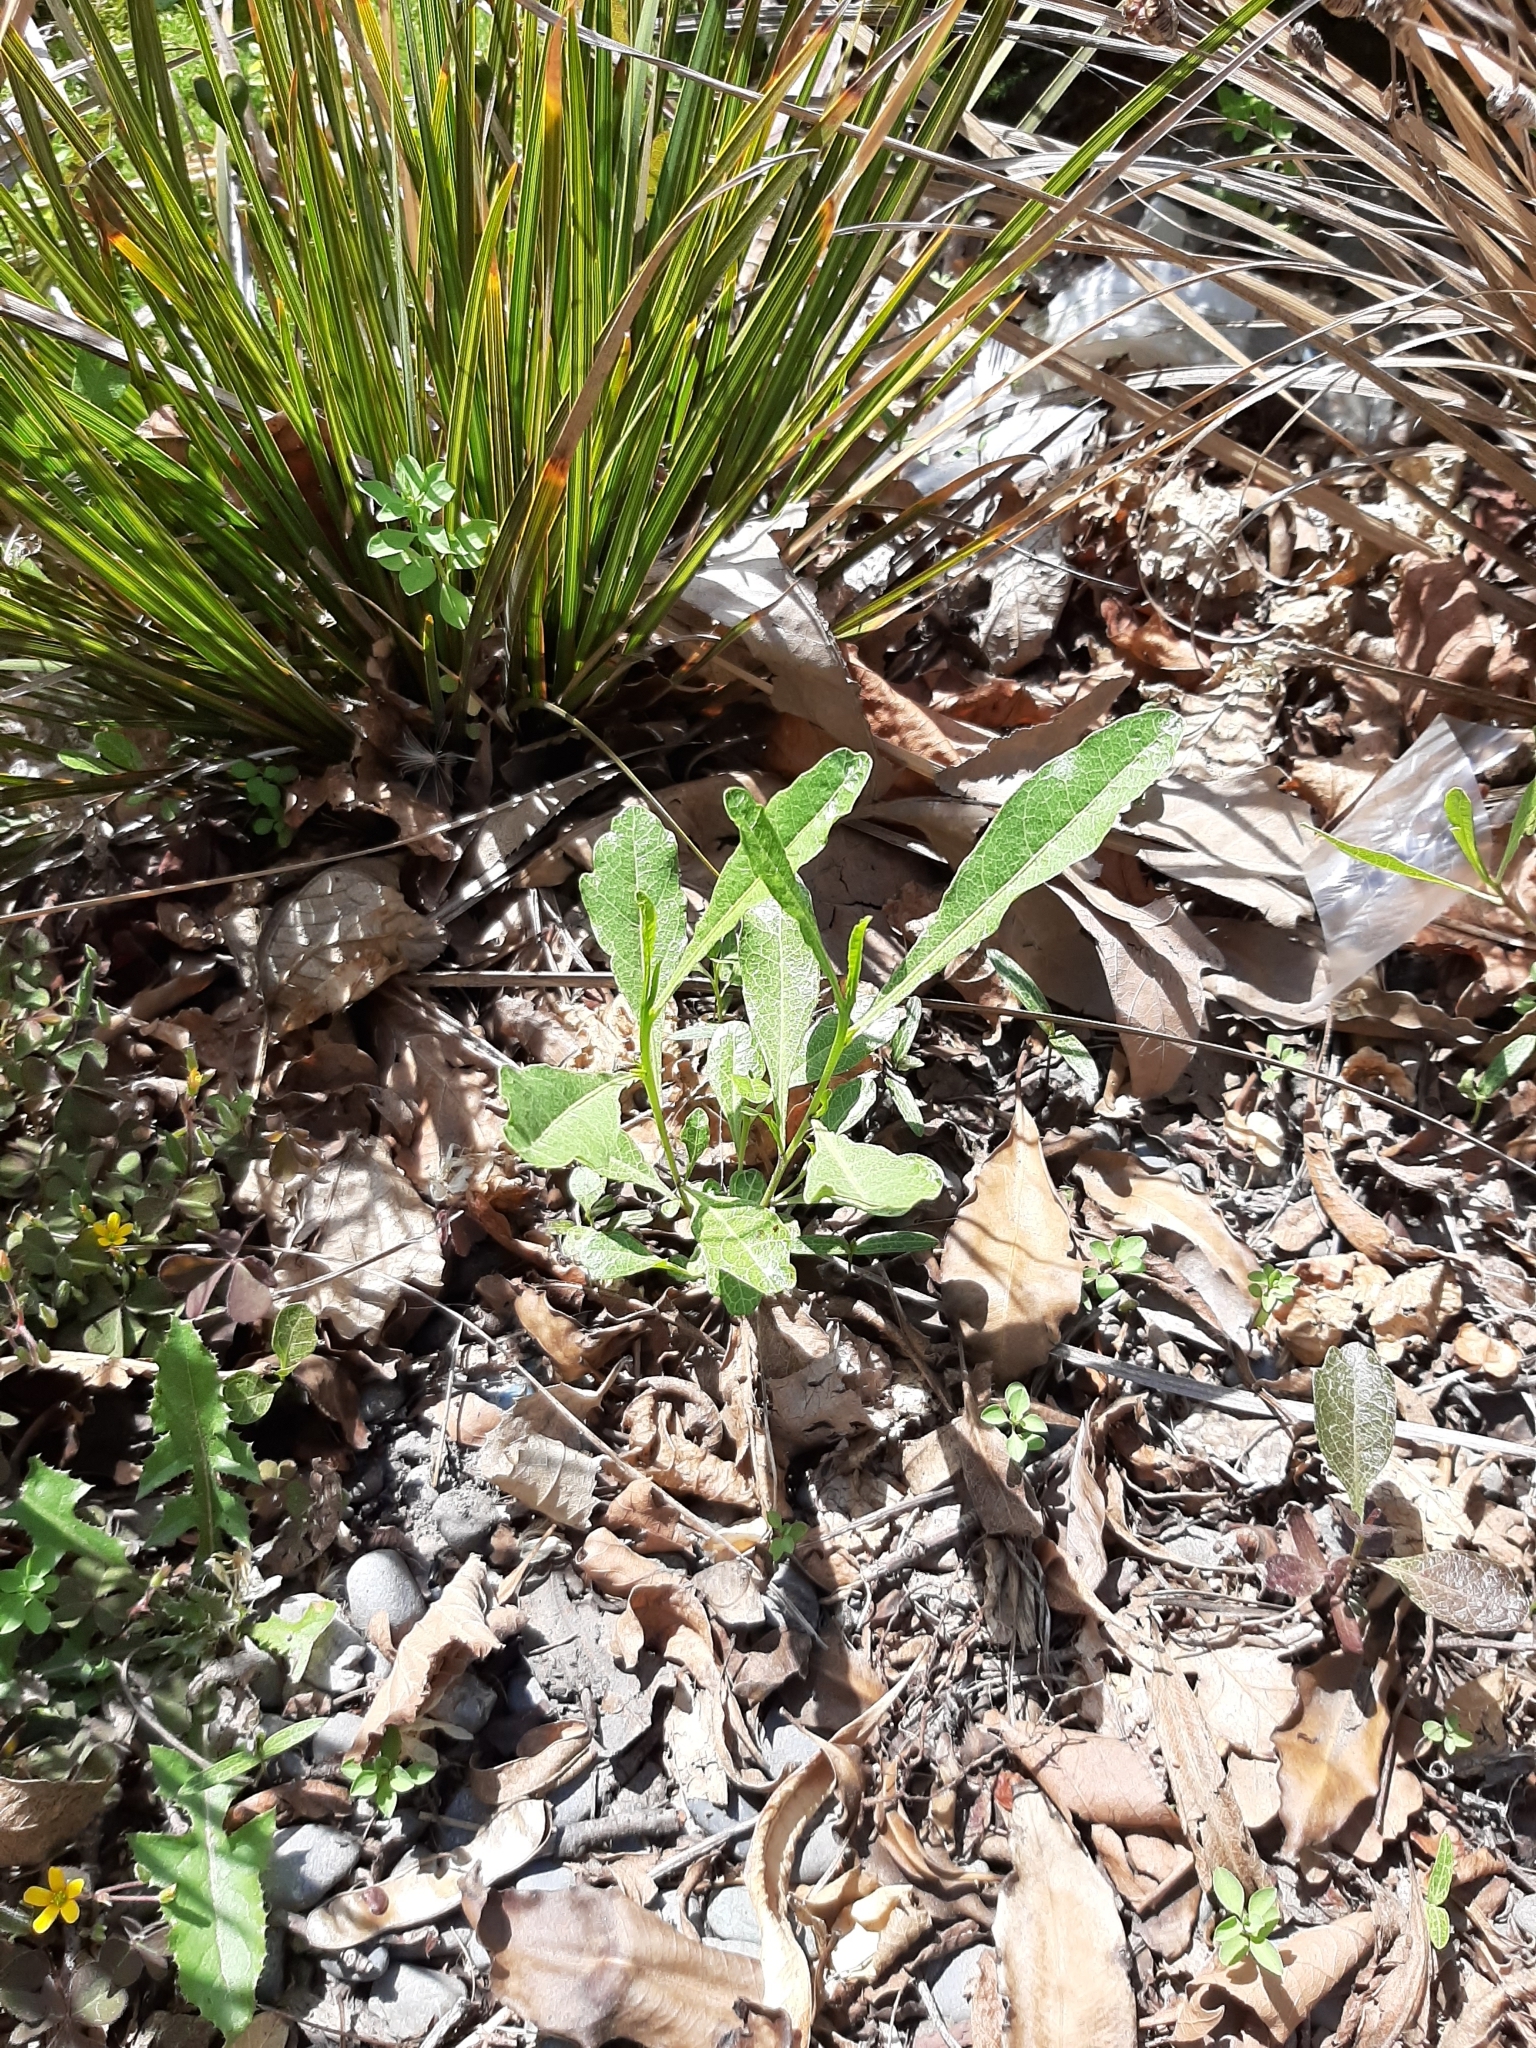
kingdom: Plantae
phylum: Tracheophyta
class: Magnoliopsida
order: Sapindales
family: Sapindaceae
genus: Dodonaea
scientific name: Dodonaea viscosa
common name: Hopbush
